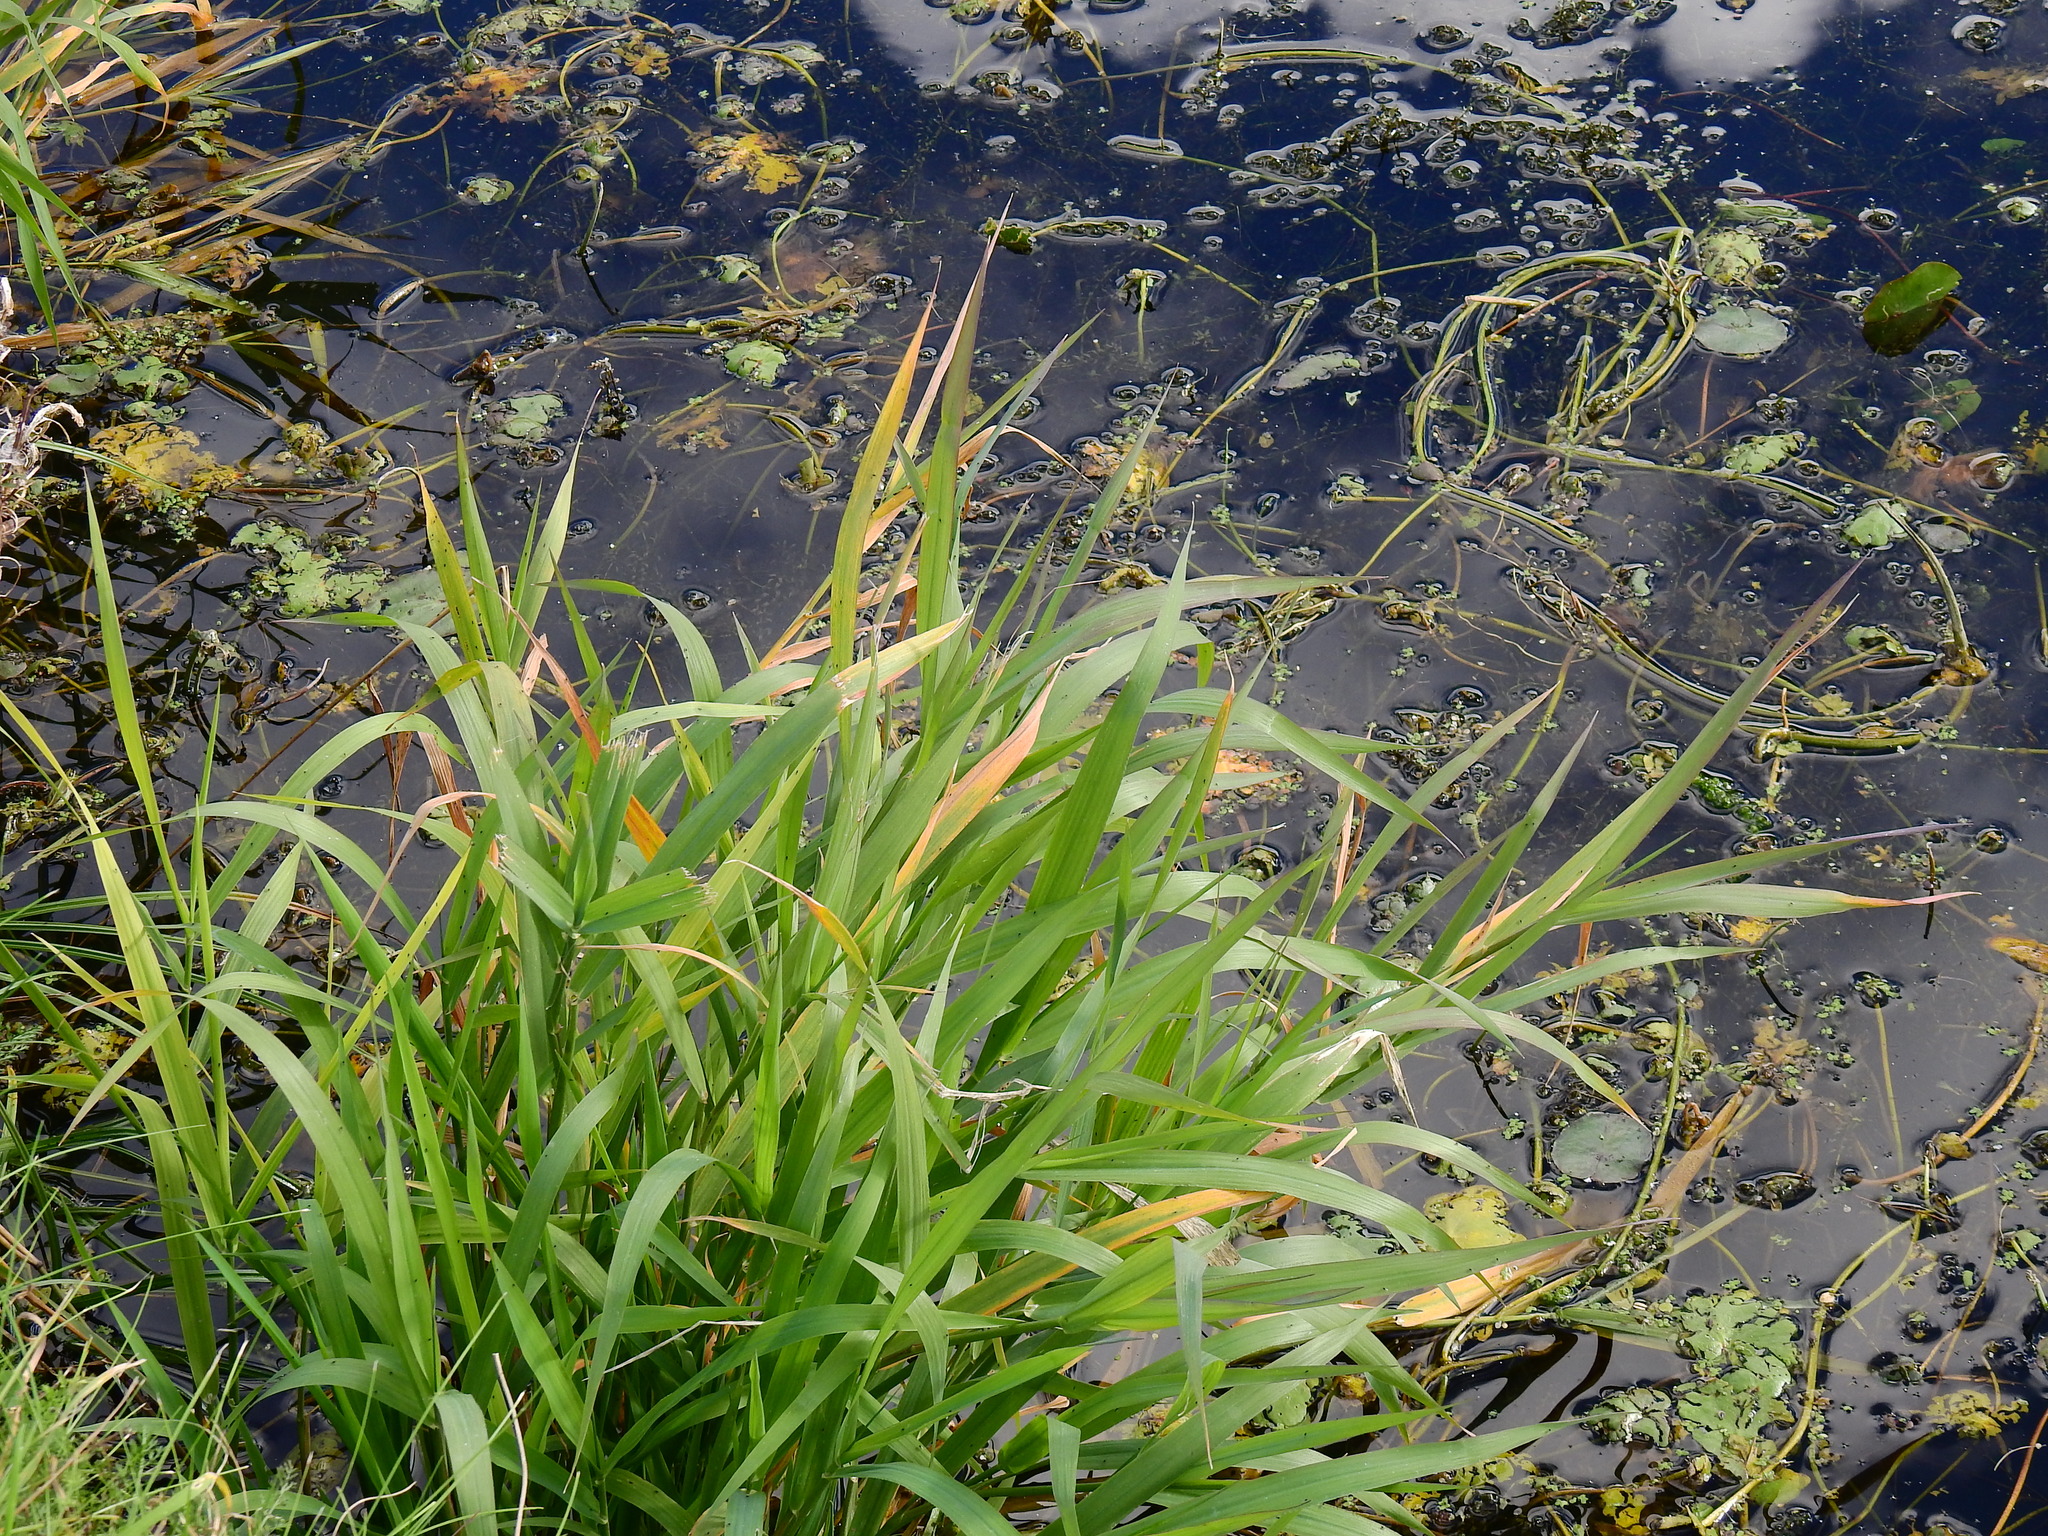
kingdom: Plantae
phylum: Tracheophyta
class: Liliopsida
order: Poales
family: Poaceae
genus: Glyceria
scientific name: Glyceria maxima
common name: Reed mannagrass
